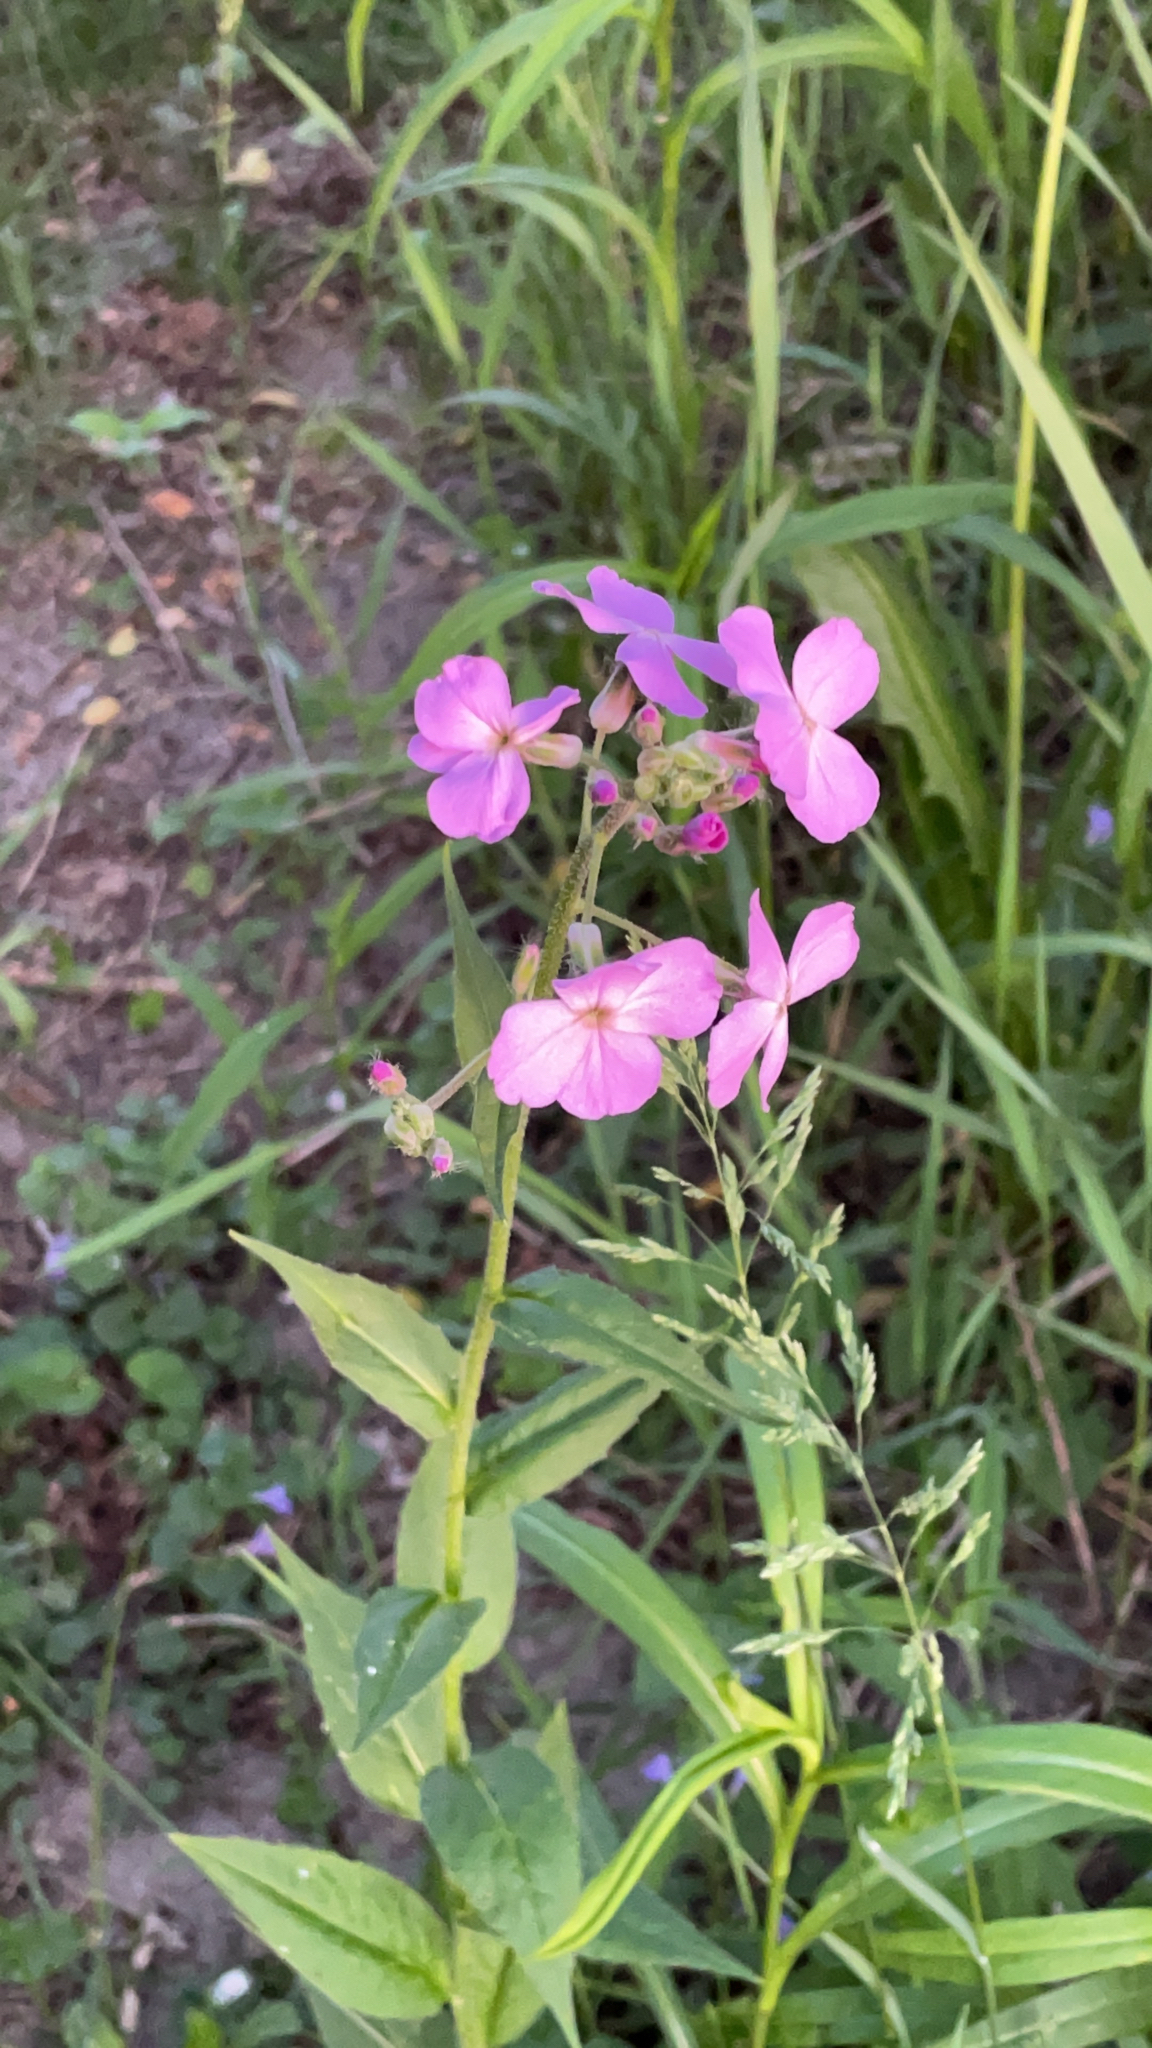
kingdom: Plantae
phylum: Tracheophyta
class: Magnoliopsida
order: Brassicales
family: Brassicaceae
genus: Hesperis
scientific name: Hesperis matronalis
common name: Dame's-violet
